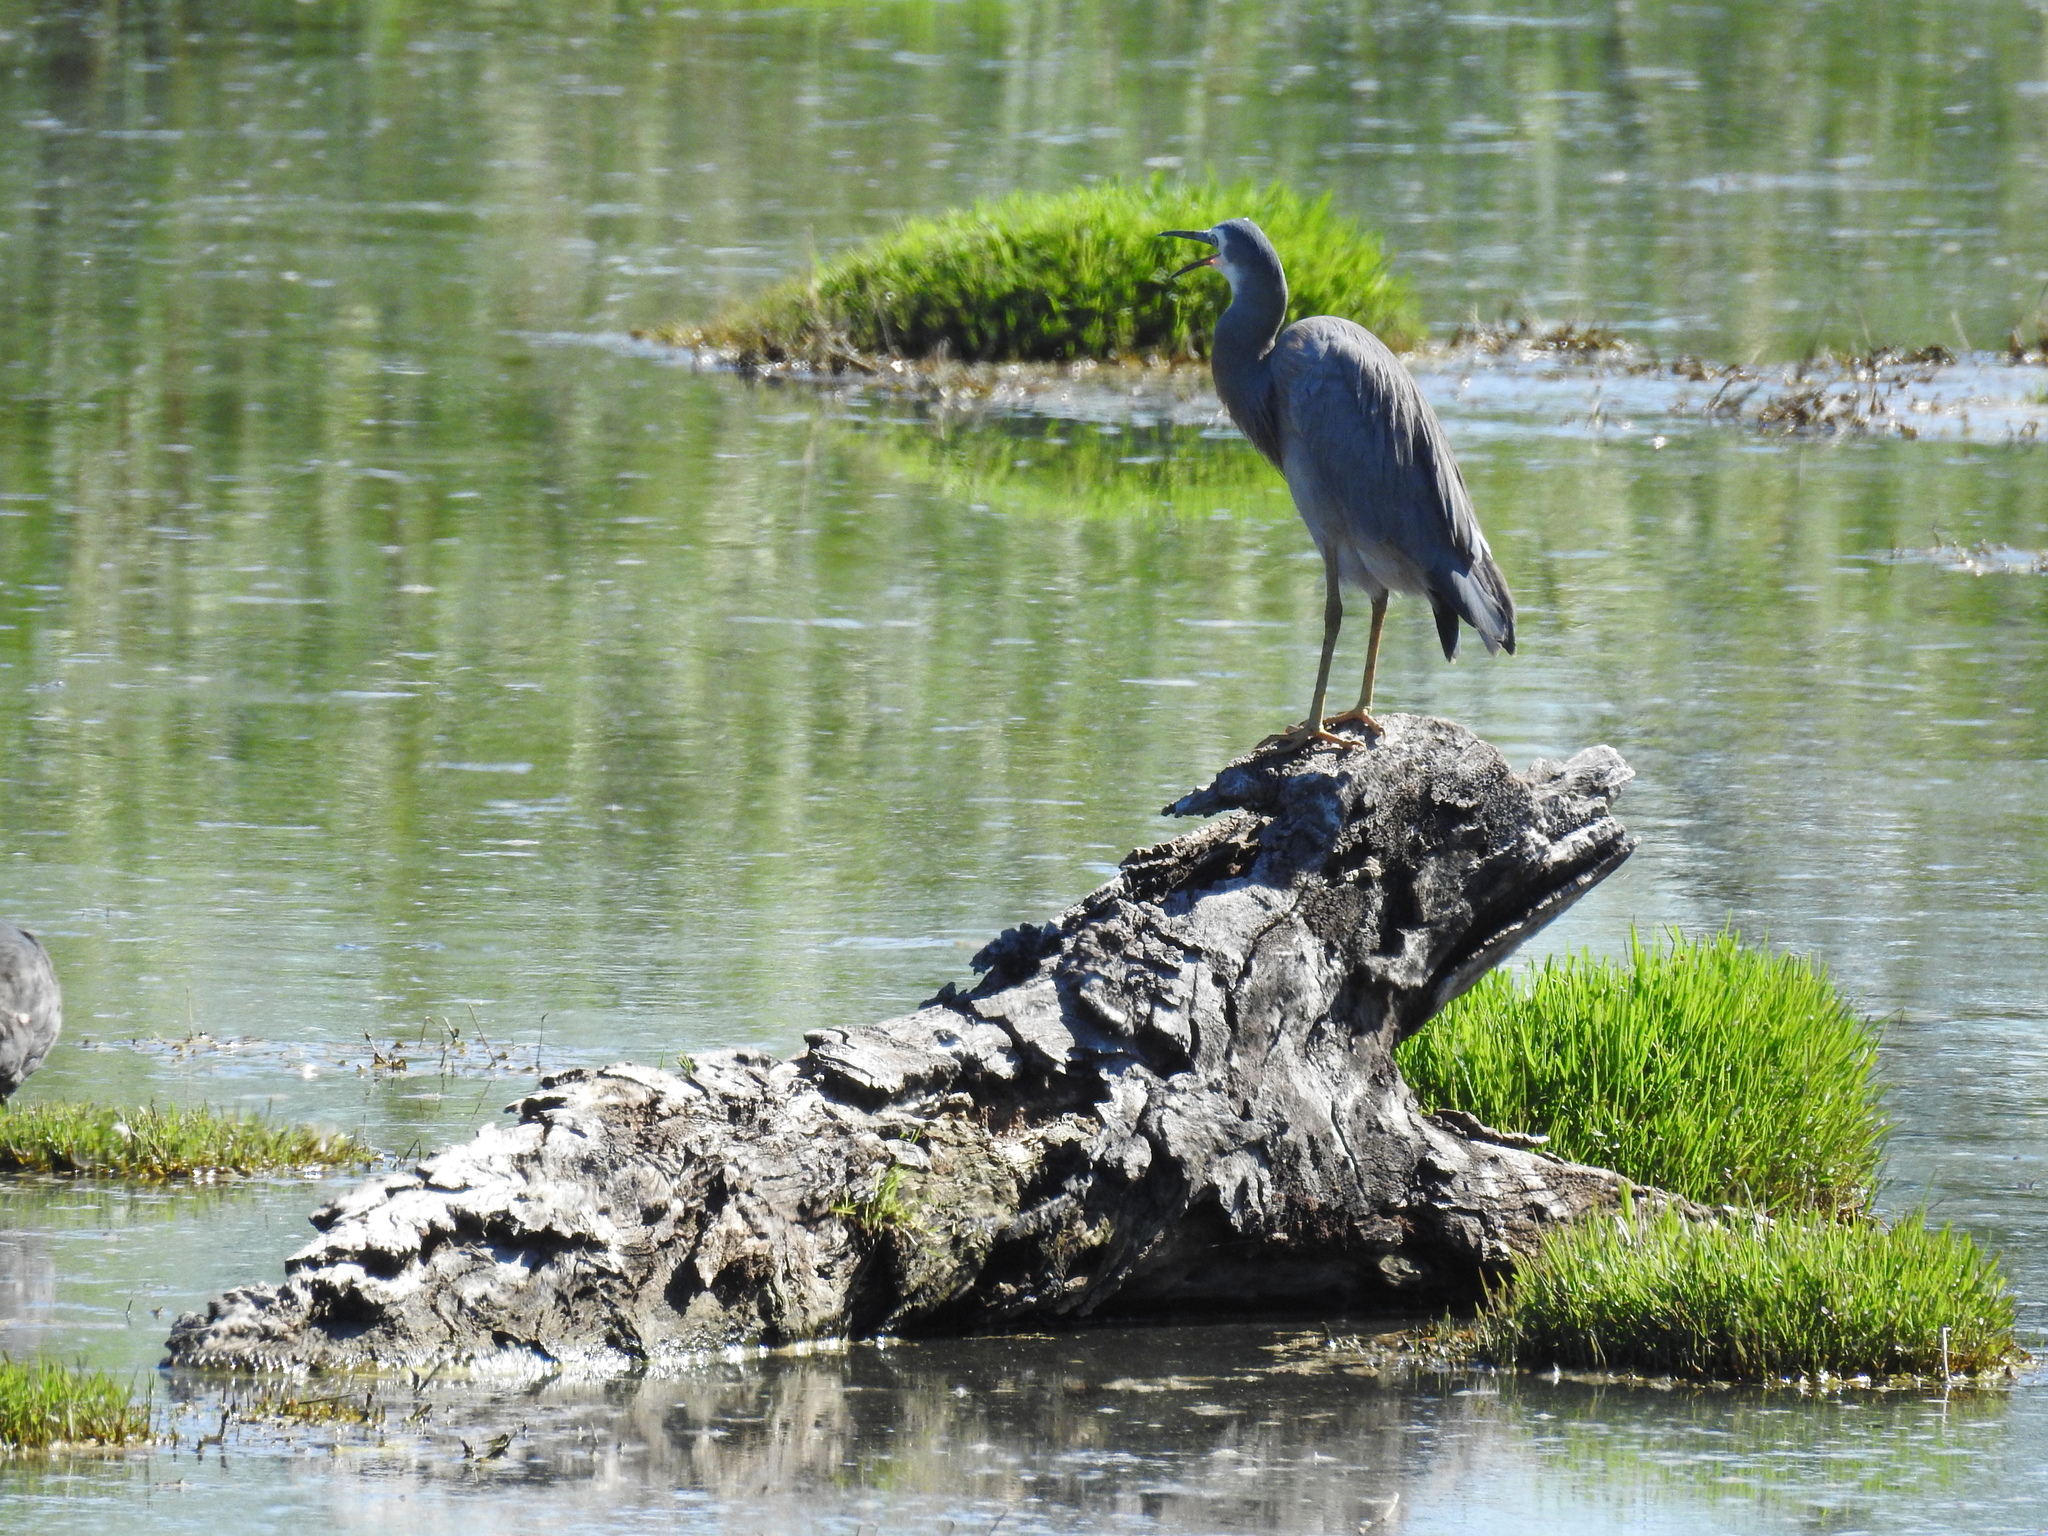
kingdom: Animalia
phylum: Chordata
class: Aves
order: Pelecaniformes
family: Ardeidae
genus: Egretta
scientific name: Egretta novaehollandiae
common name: White-faced heron
